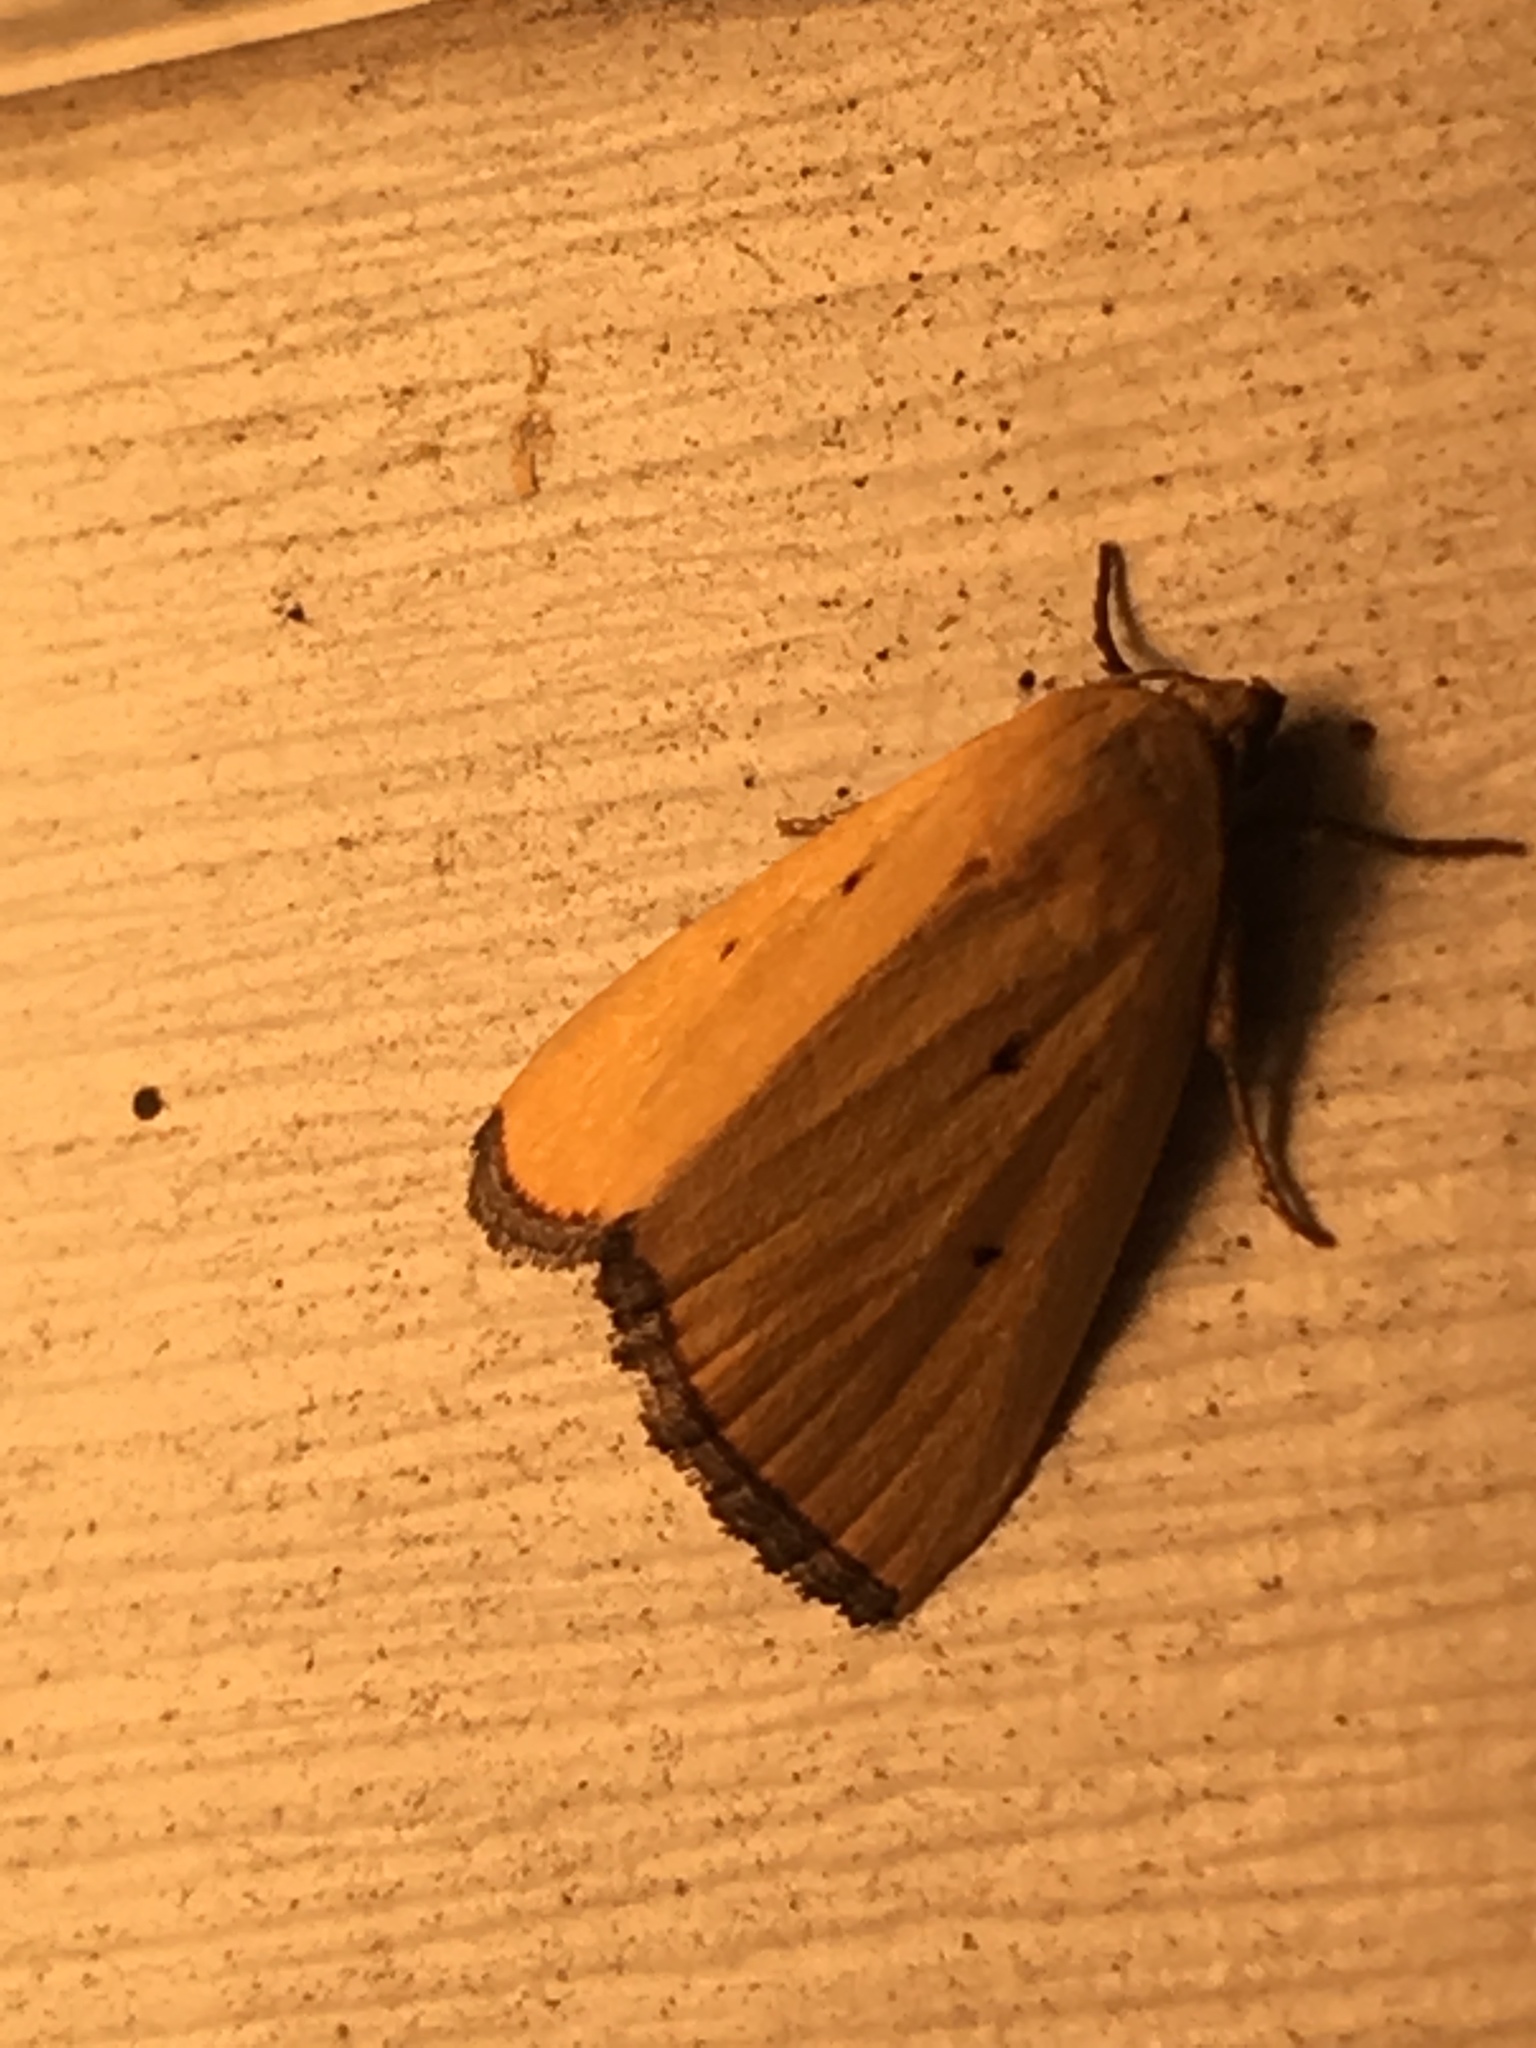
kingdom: Animalia
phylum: Arthropoda
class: Insecta
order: Lepidoptera
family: Noctuidae
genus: Marimatha
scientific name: Marimatha nigrofimbria
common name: Black-bordered lemon moth
